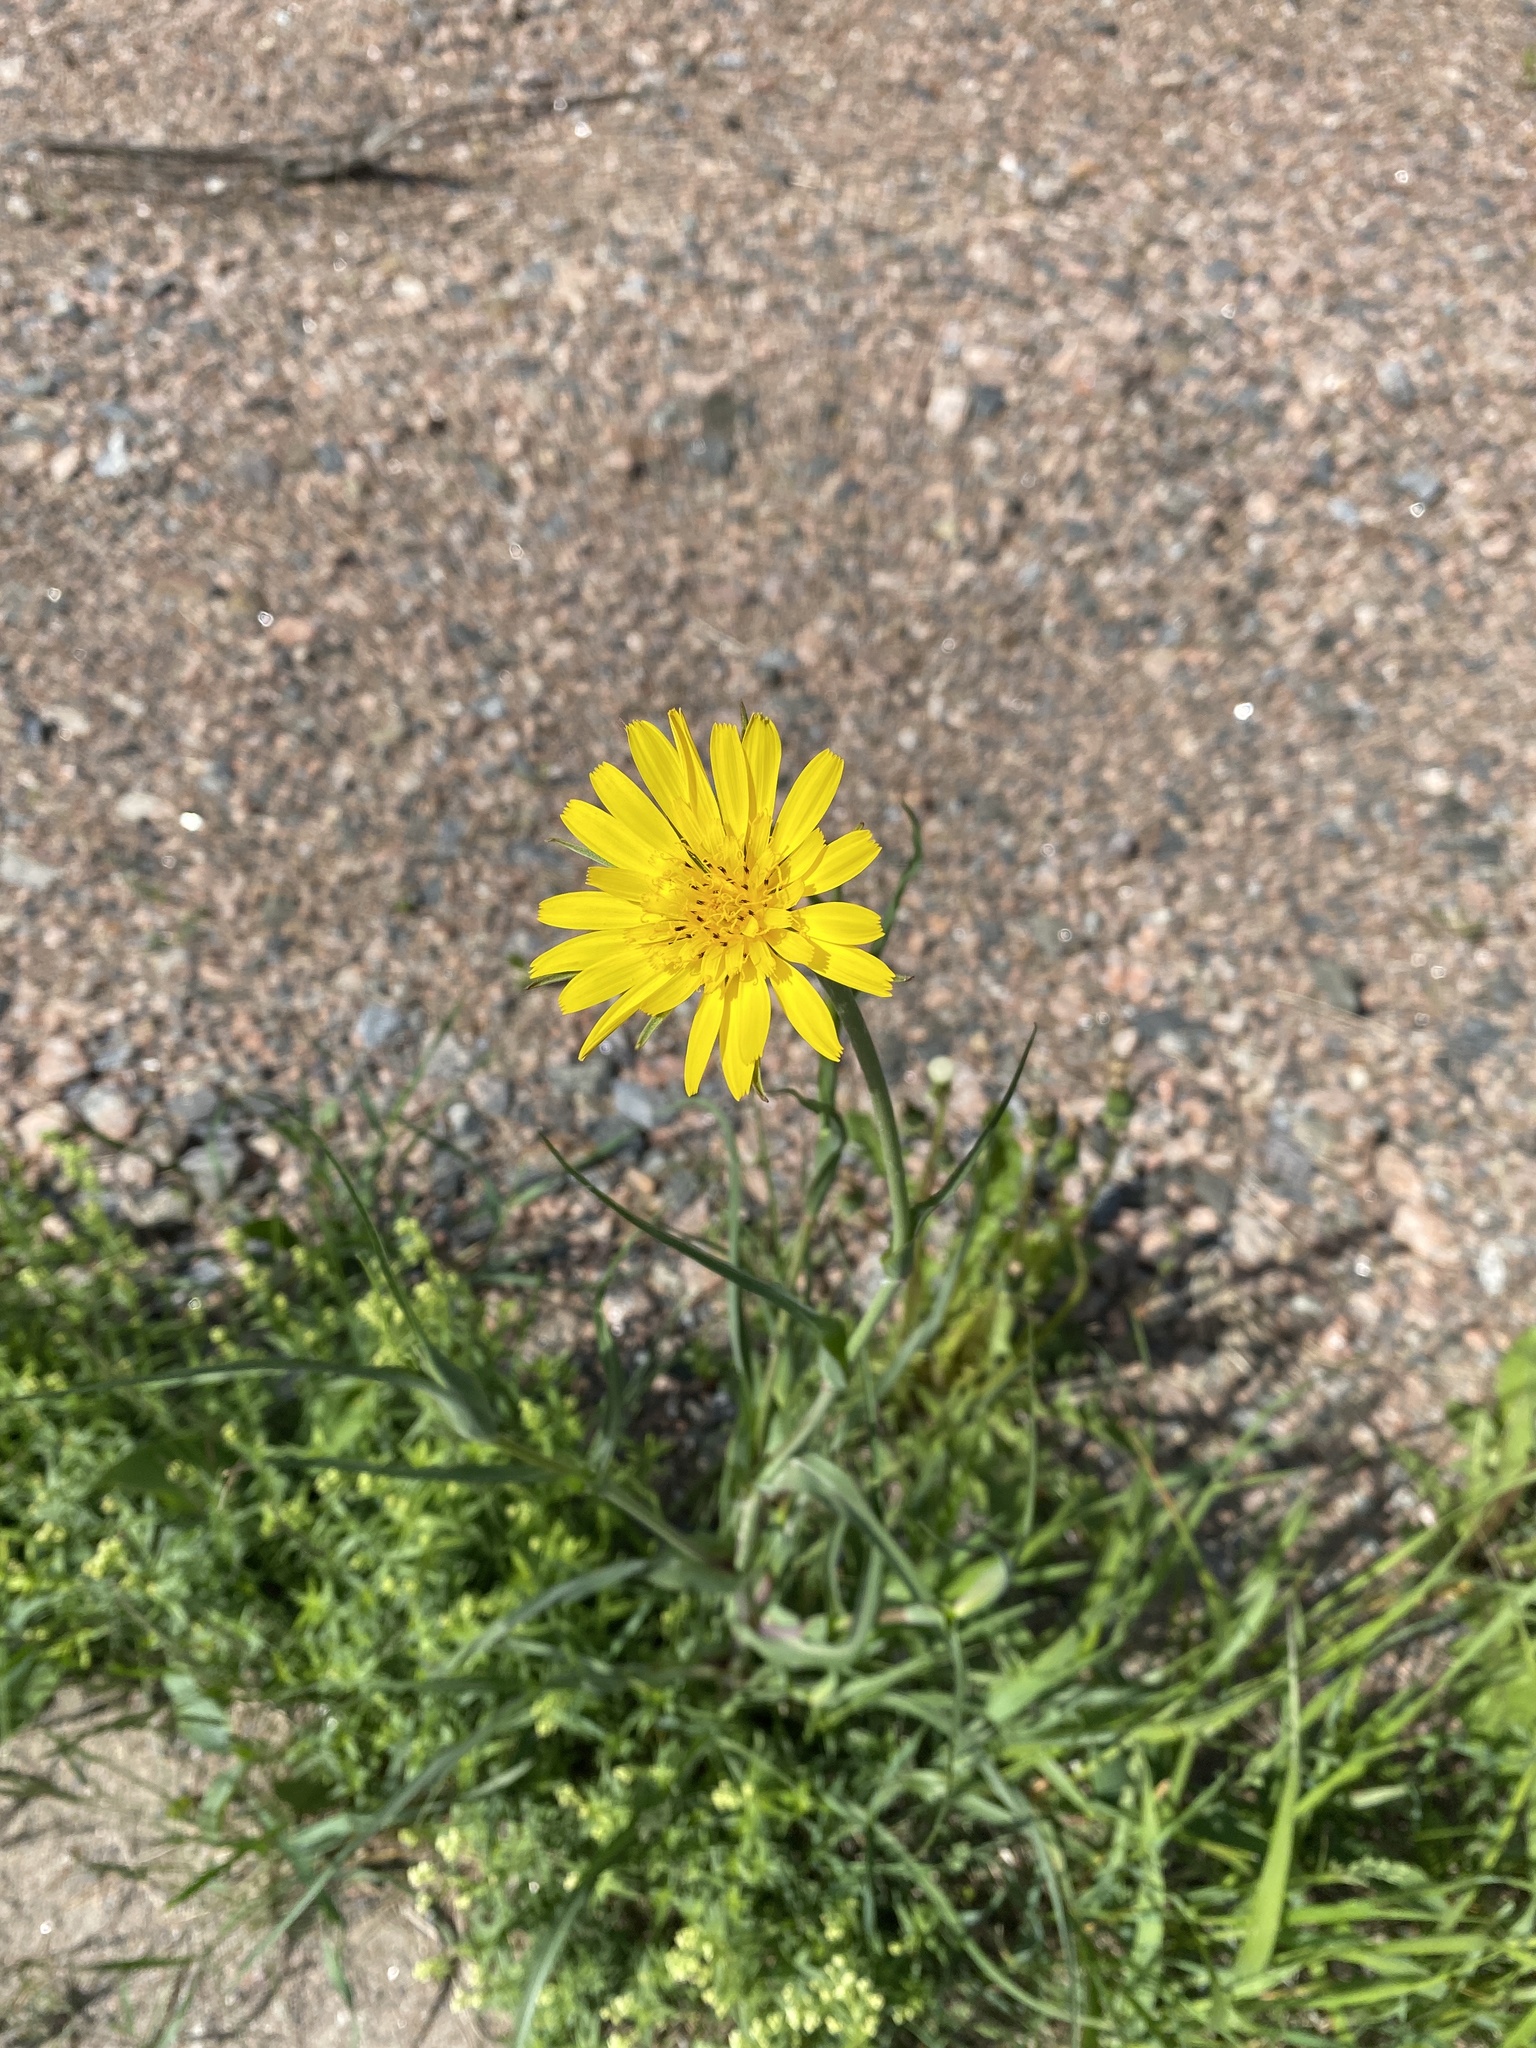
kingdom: Plantae
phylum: Tracheophyta
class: Magnoliopsida
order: Asterales
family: Asteraceae
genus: Tragopogon
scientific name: Tragopogon orientalis
